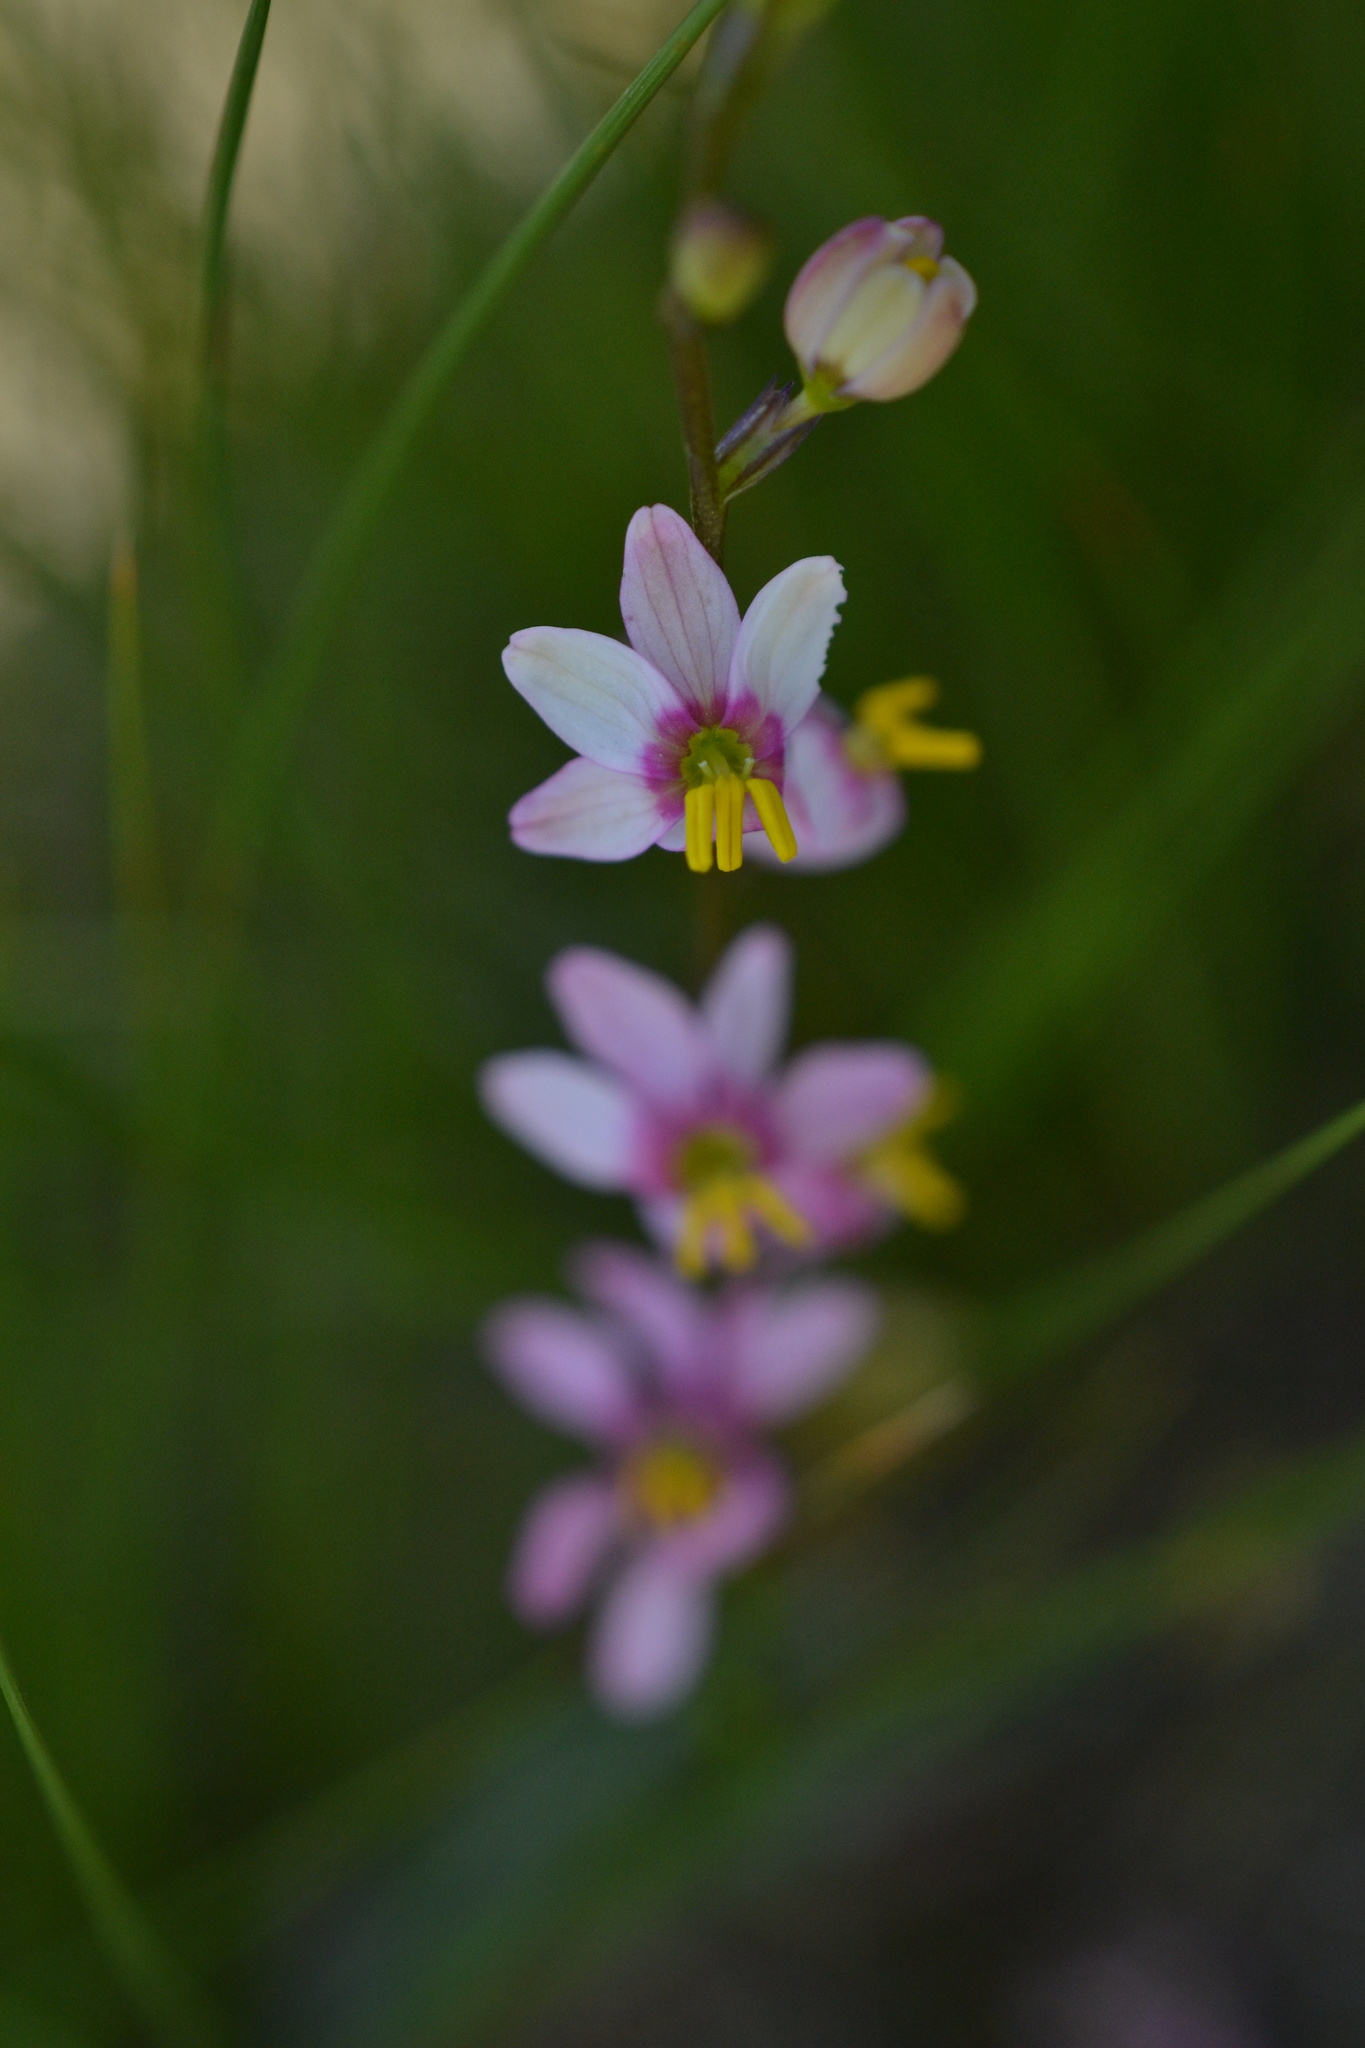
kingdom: Plantae
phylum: Tracheophyta
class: Liliopsida
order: Asparagales
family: Iridaceae
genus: Ixia
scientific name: Ixia scillaris
